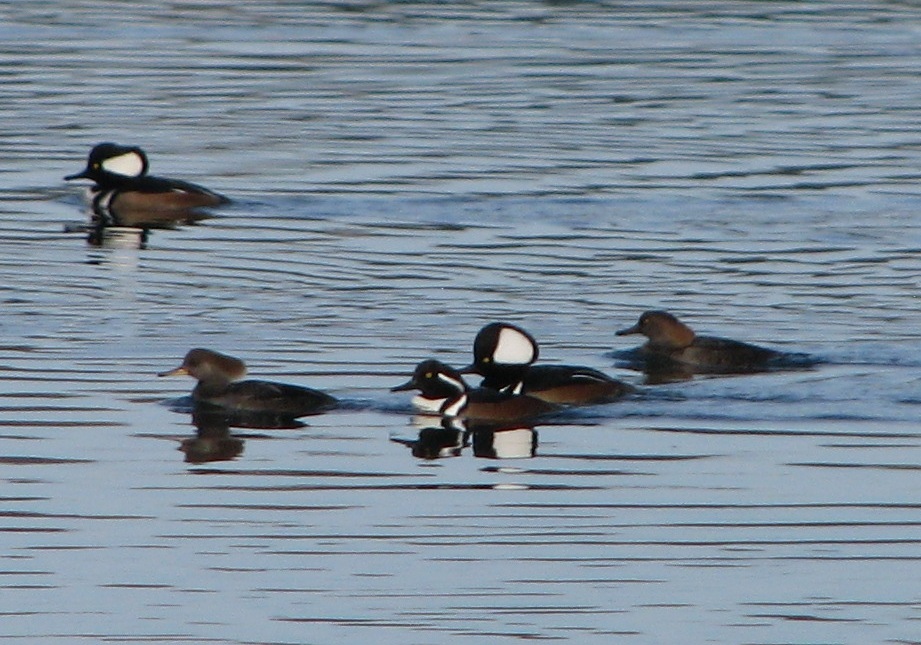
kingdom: Animalia
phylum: Chordata
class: Aves
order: Anseriformes
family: Anatidae
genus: Lophodytes
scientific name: Lophodytes cucullatus
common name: Hooded merganser
